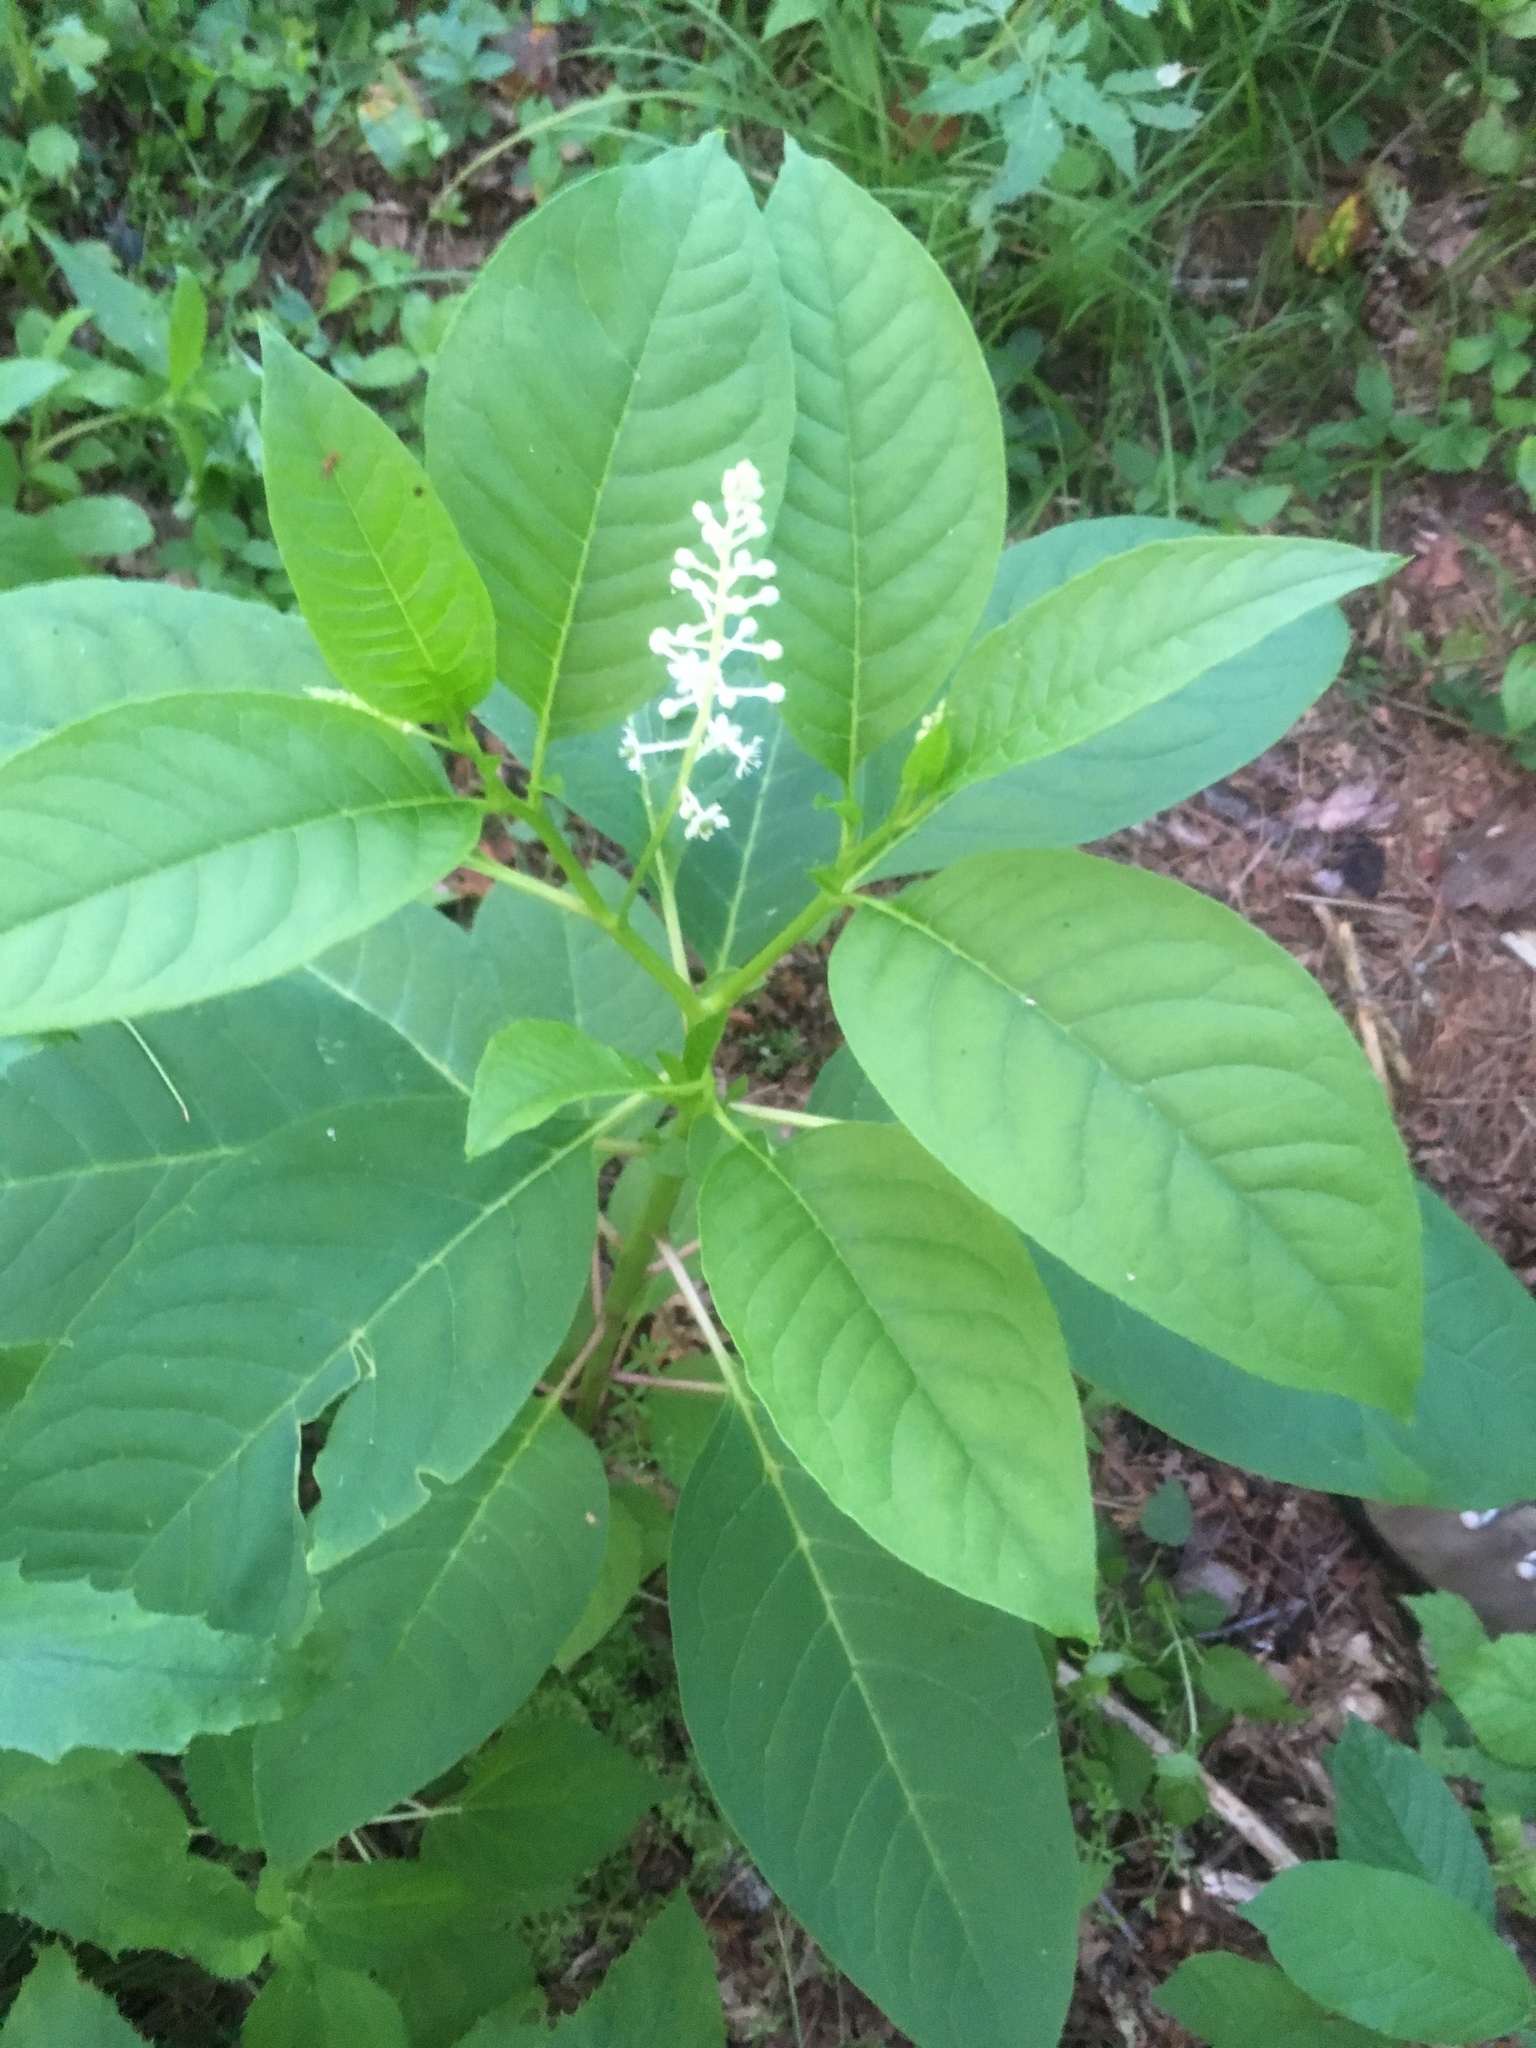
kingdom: Plantae
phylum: Tracheophyta
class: Magnoliopsida
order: Caryophyllales
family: Phytolaccaceae
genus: Phytolacca
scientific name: Phytolacca americana
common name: American pokeweed
